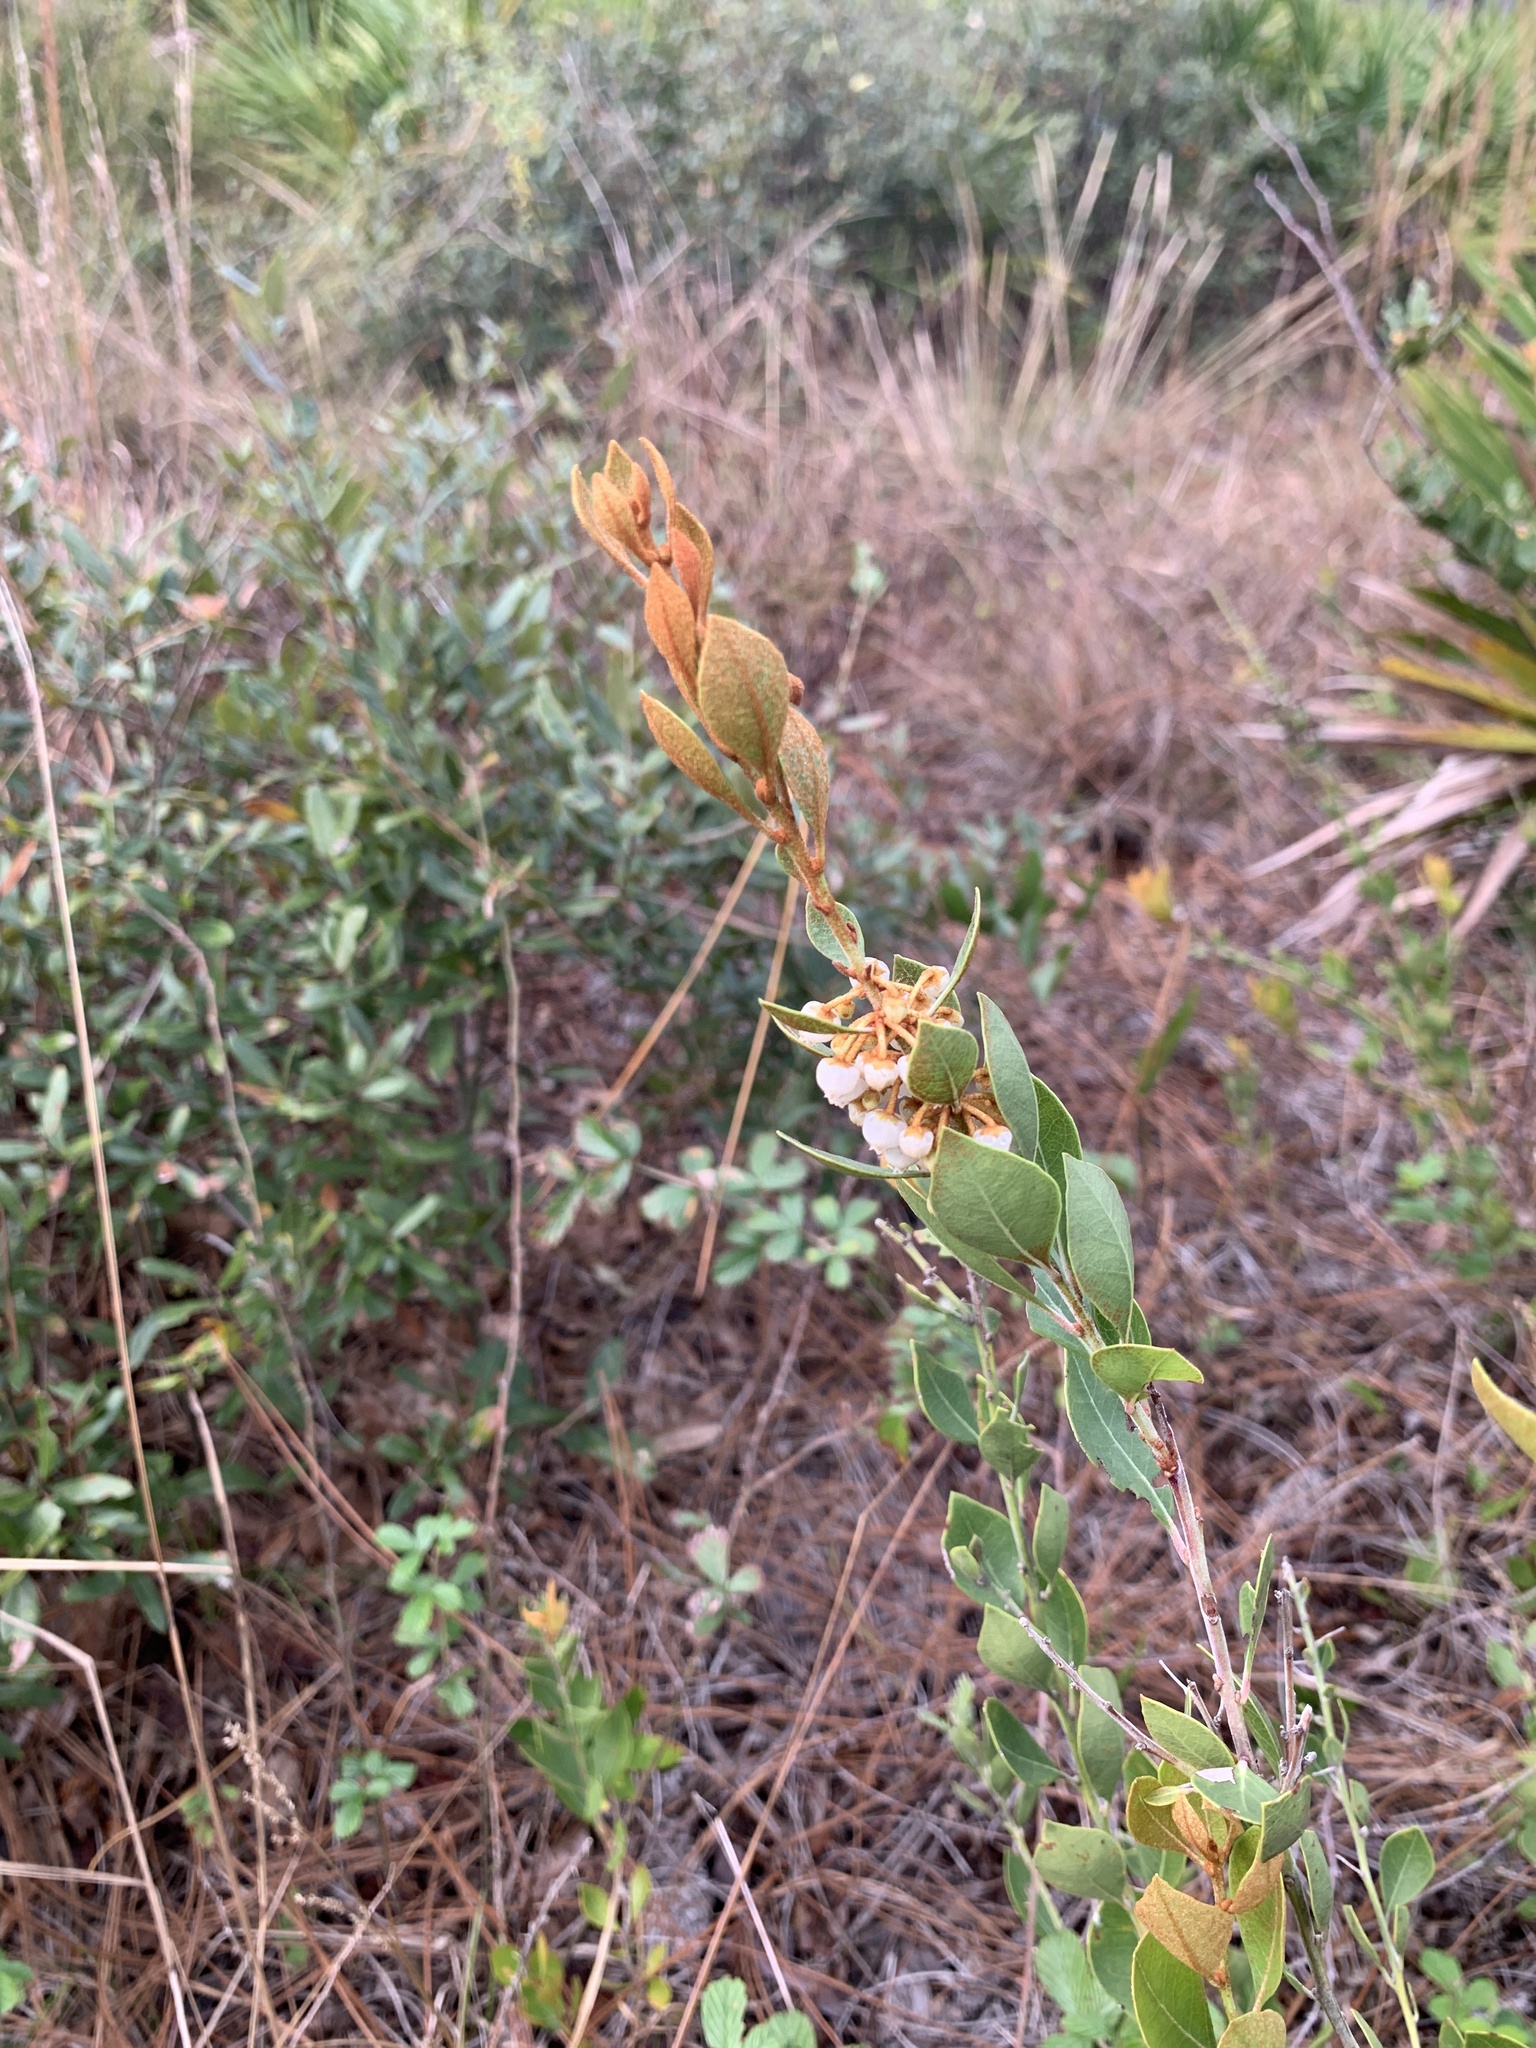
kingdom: Plantae
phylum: Tracheophyta
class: Magnoliopsida
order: Ericales
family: Ericaceae
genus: Lyonia
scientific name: Lyonia fruticosa
